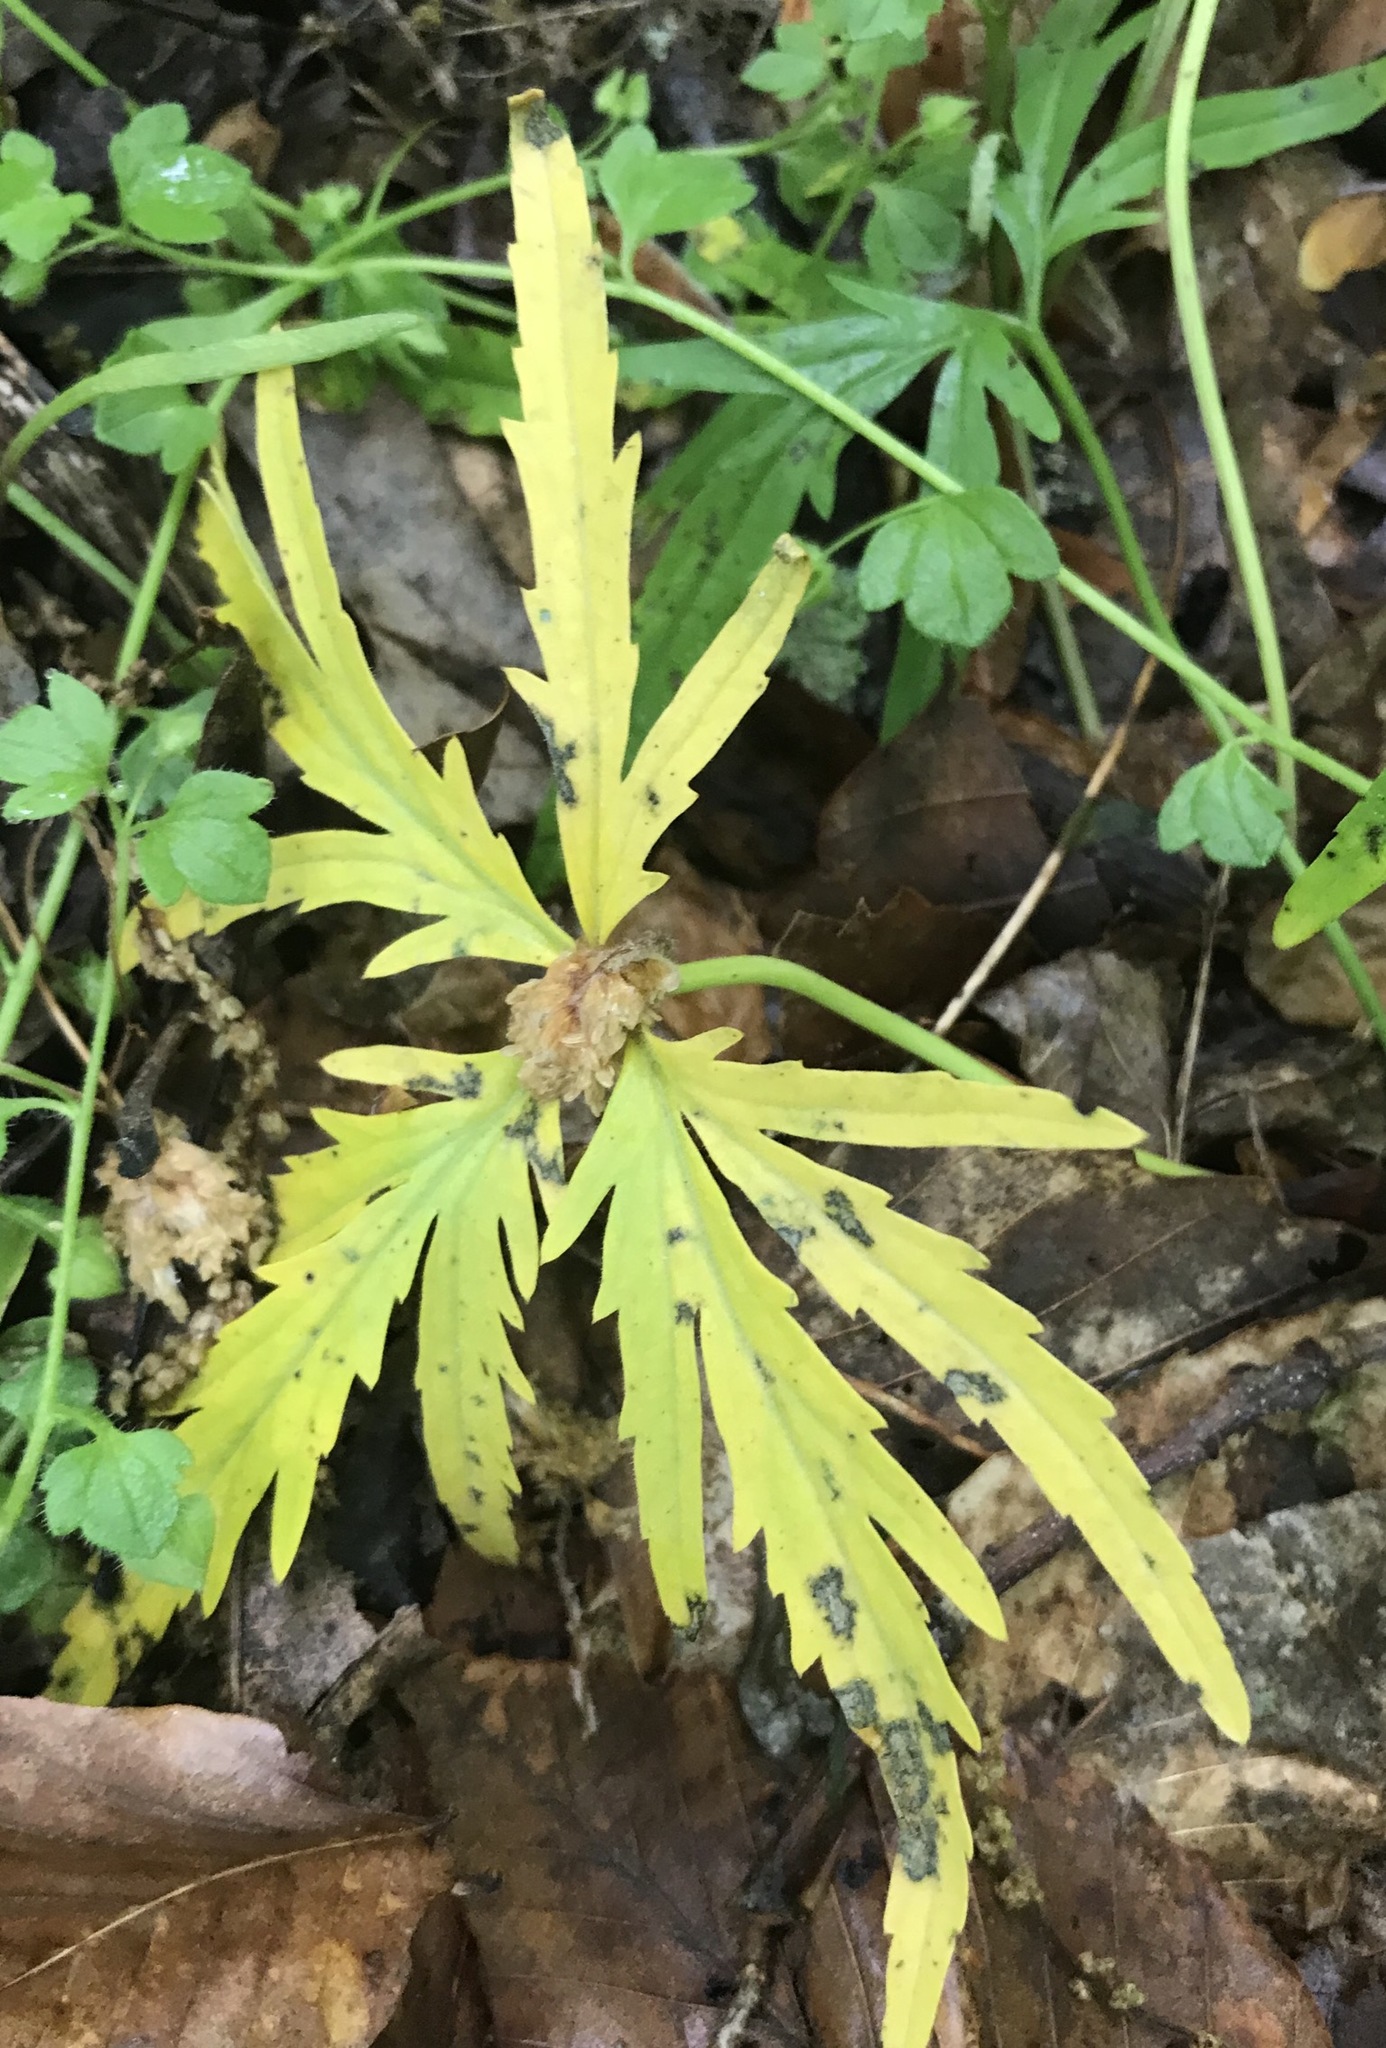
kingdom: Plantae
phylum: Tracheophyta
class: Magnoliopsida
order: Brassicales
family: Brassicaceae
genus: Cardamine
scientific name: Cardamine concatenata
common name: Cut-leaf toothcup
